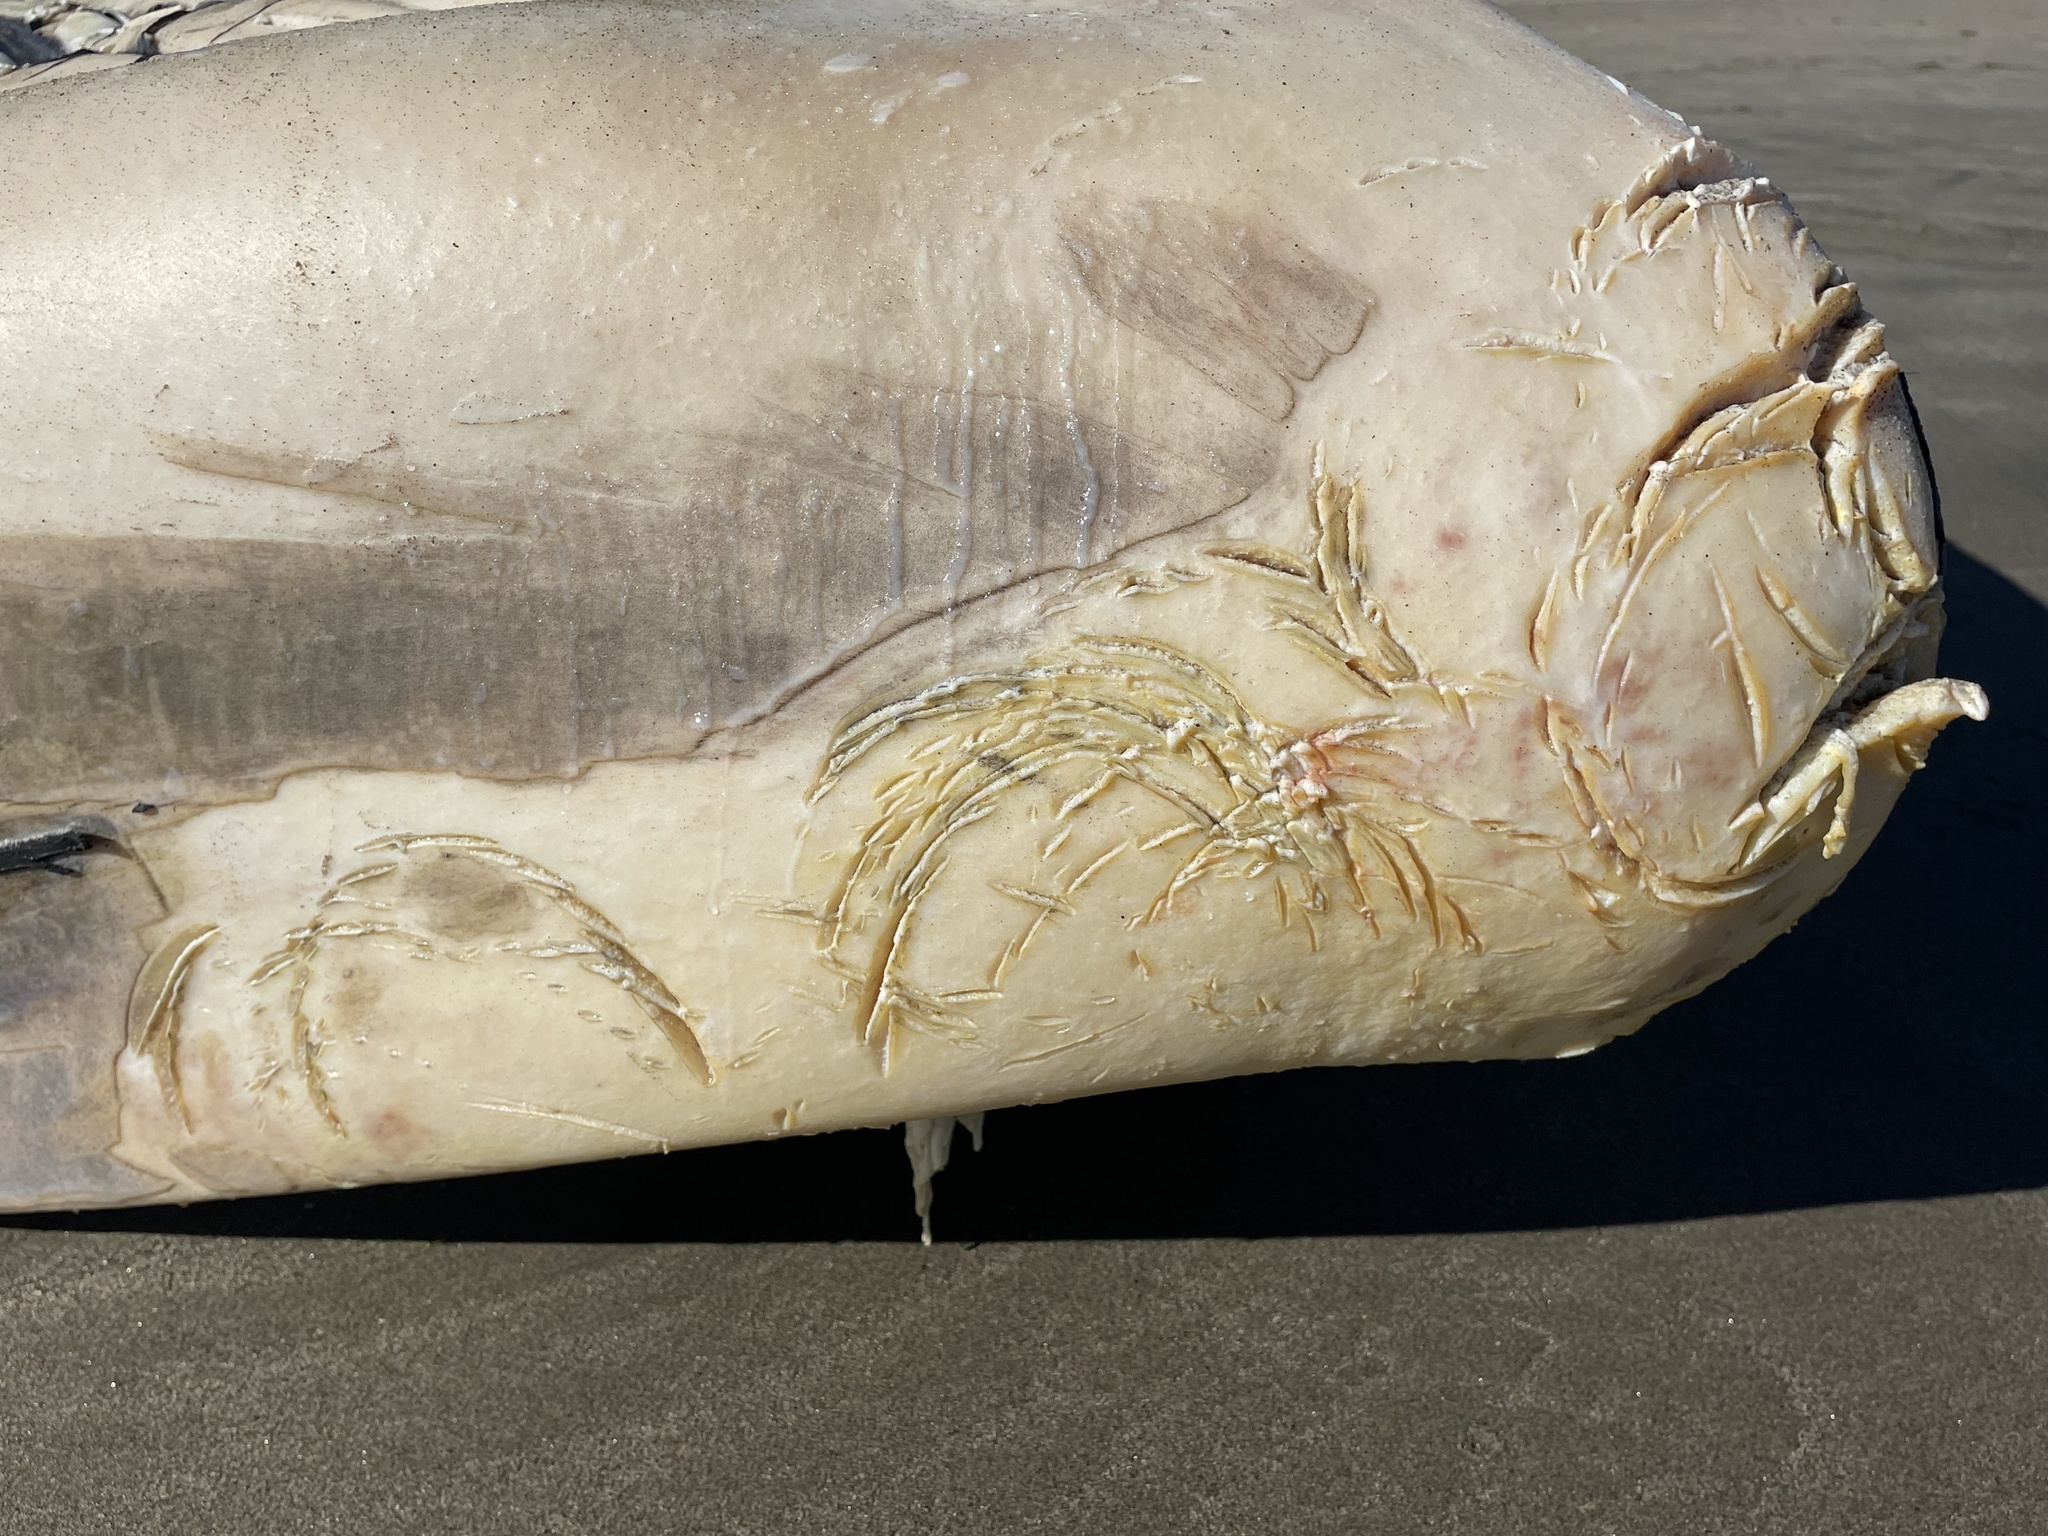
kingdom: Animalia
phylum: Chordata
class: Elasmobranchii
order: Lamniformes
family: Lamnidae
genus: Carcharodon
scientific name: Carcharodon carcharias
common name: Great white shark
